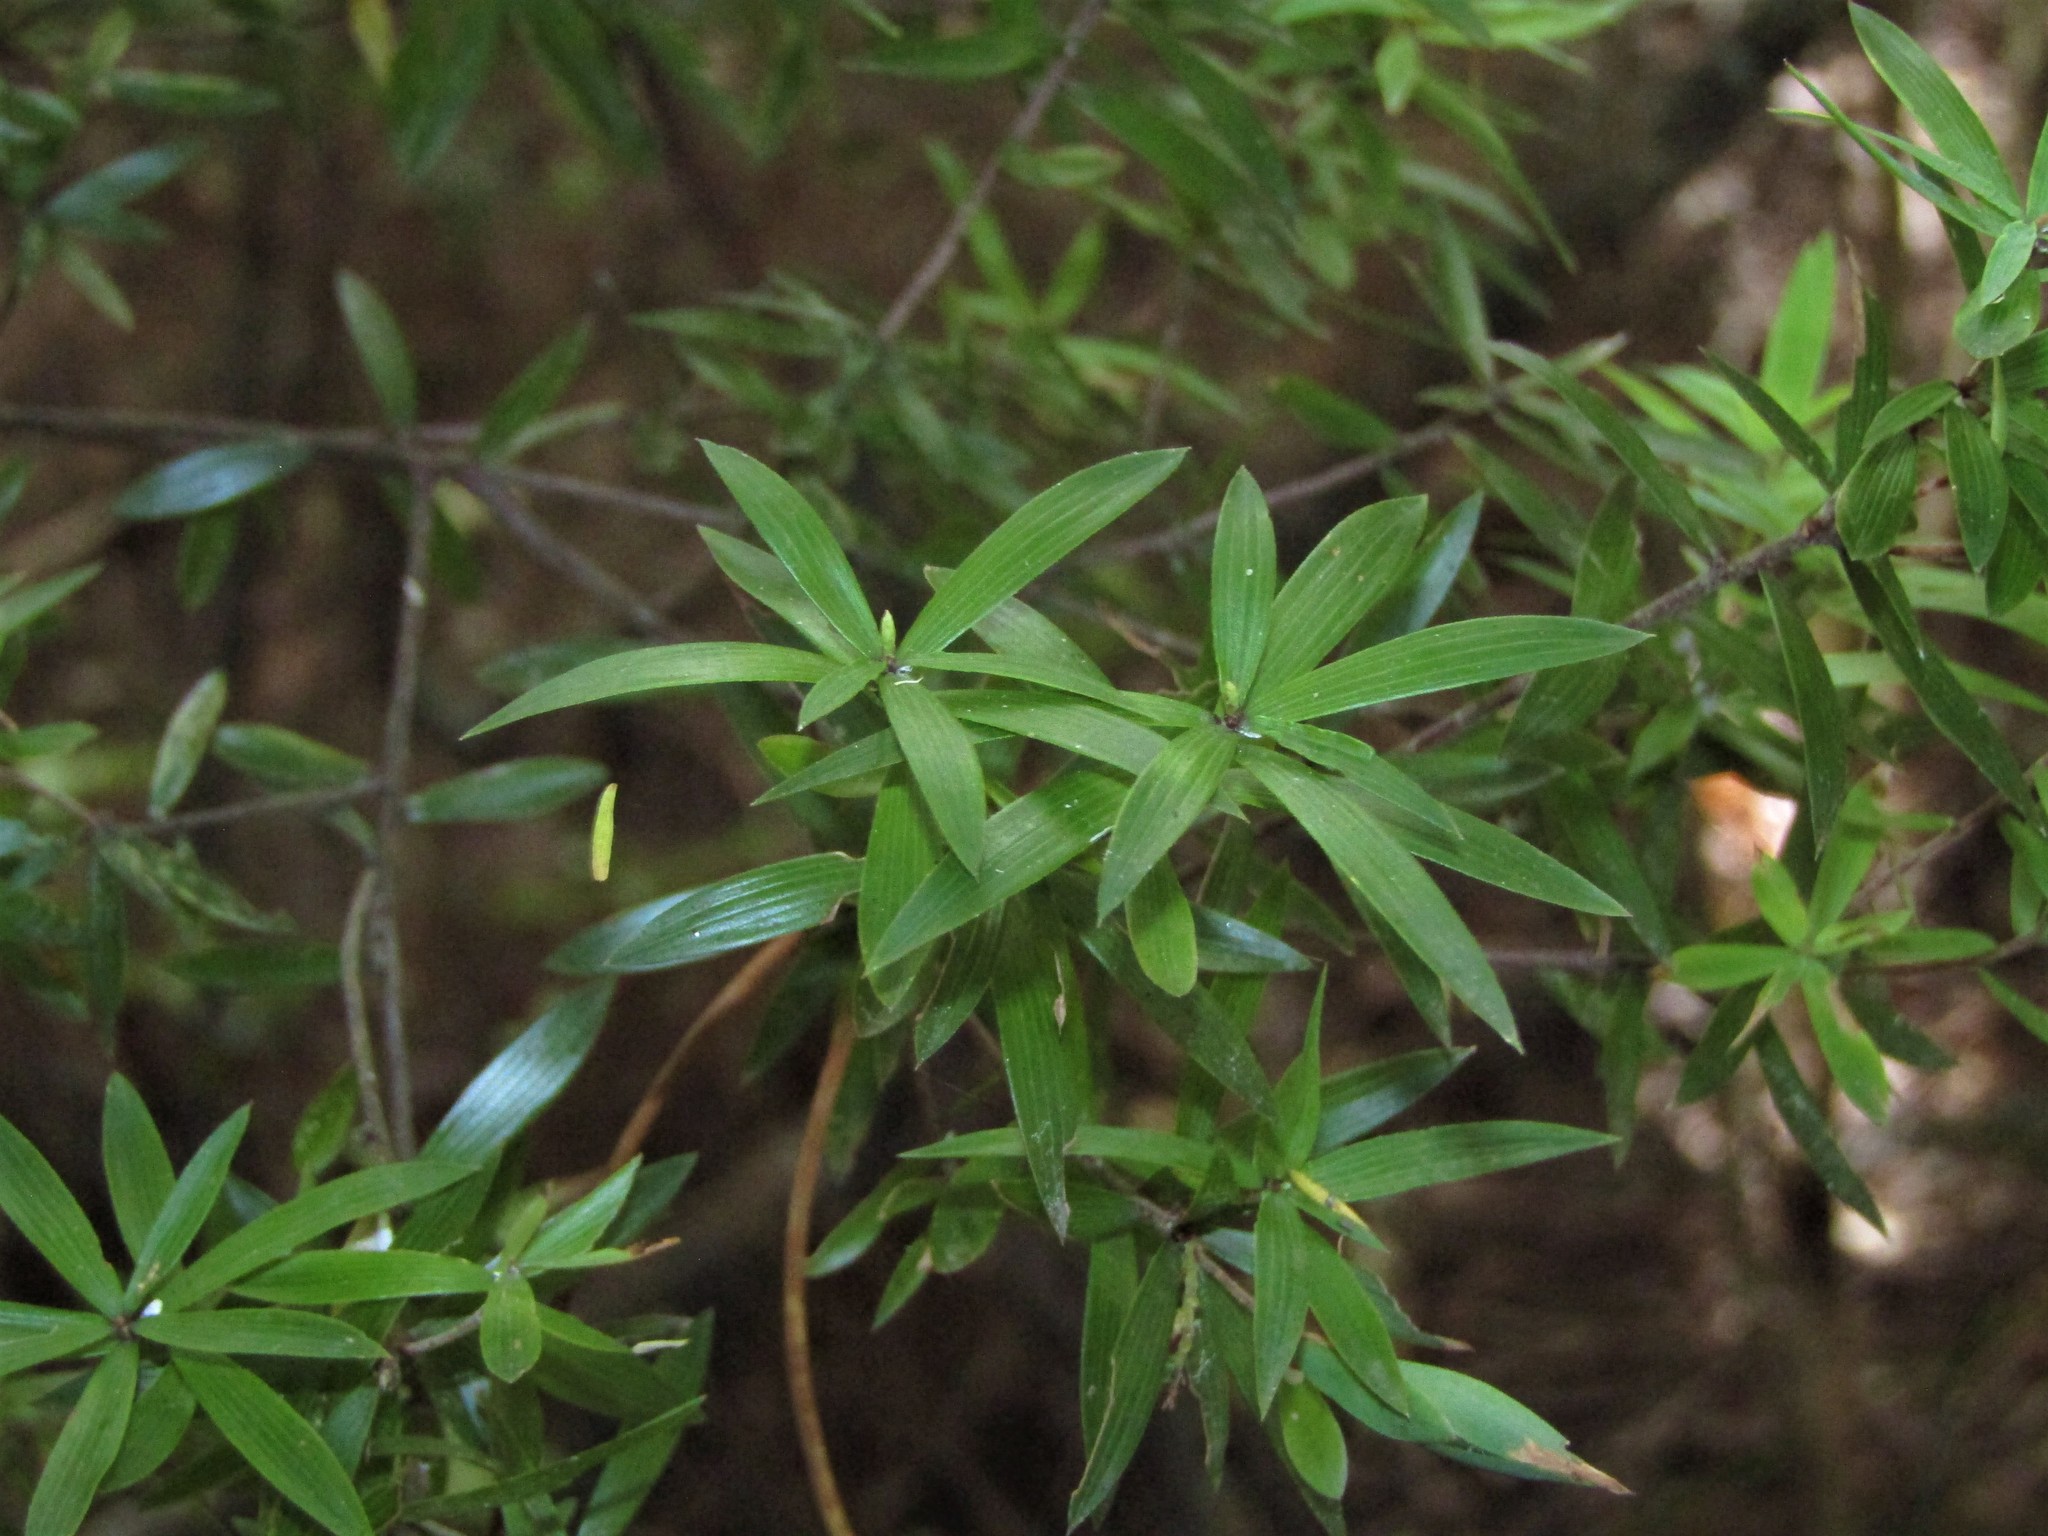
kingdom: Plantae
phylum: Tracheophyta
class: Magnoliopsida
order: Ericales
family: Ericaceae
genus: Leucopogon
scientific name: Leucopogon fasciculatus
